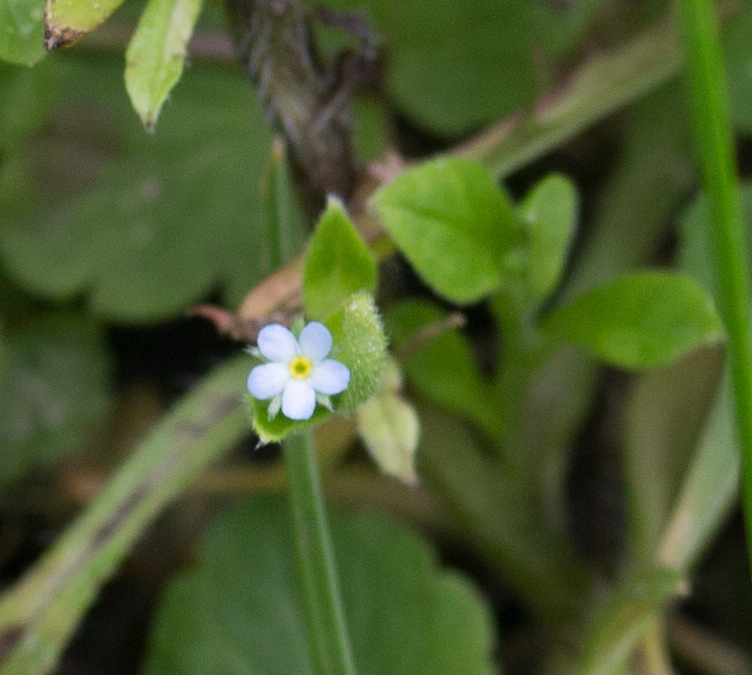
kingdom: Plantae
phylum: Tracheophyta
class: Magnoliopsida
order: Boraginales
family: Boraginaceae
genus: Myosotis
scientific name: Myosotis sparsiflora
